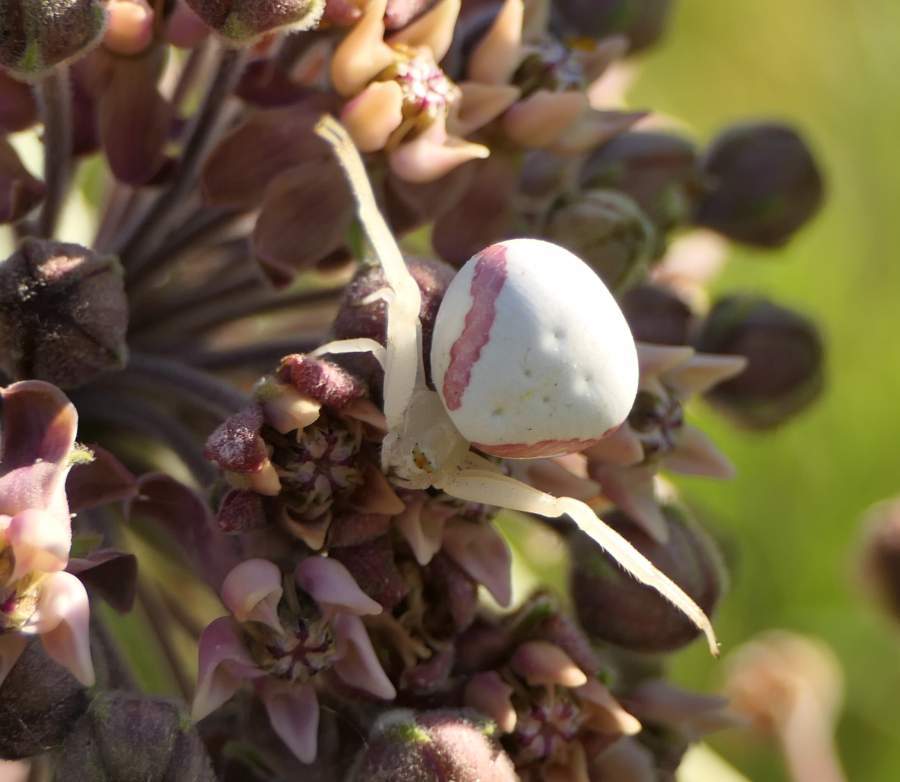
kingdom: Animalia
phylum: Arthropoda
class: Arachnida
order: Araneae
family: Thomisidae
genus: Misumena
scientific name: Misumena vatia
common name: Goldenrod crab spider
